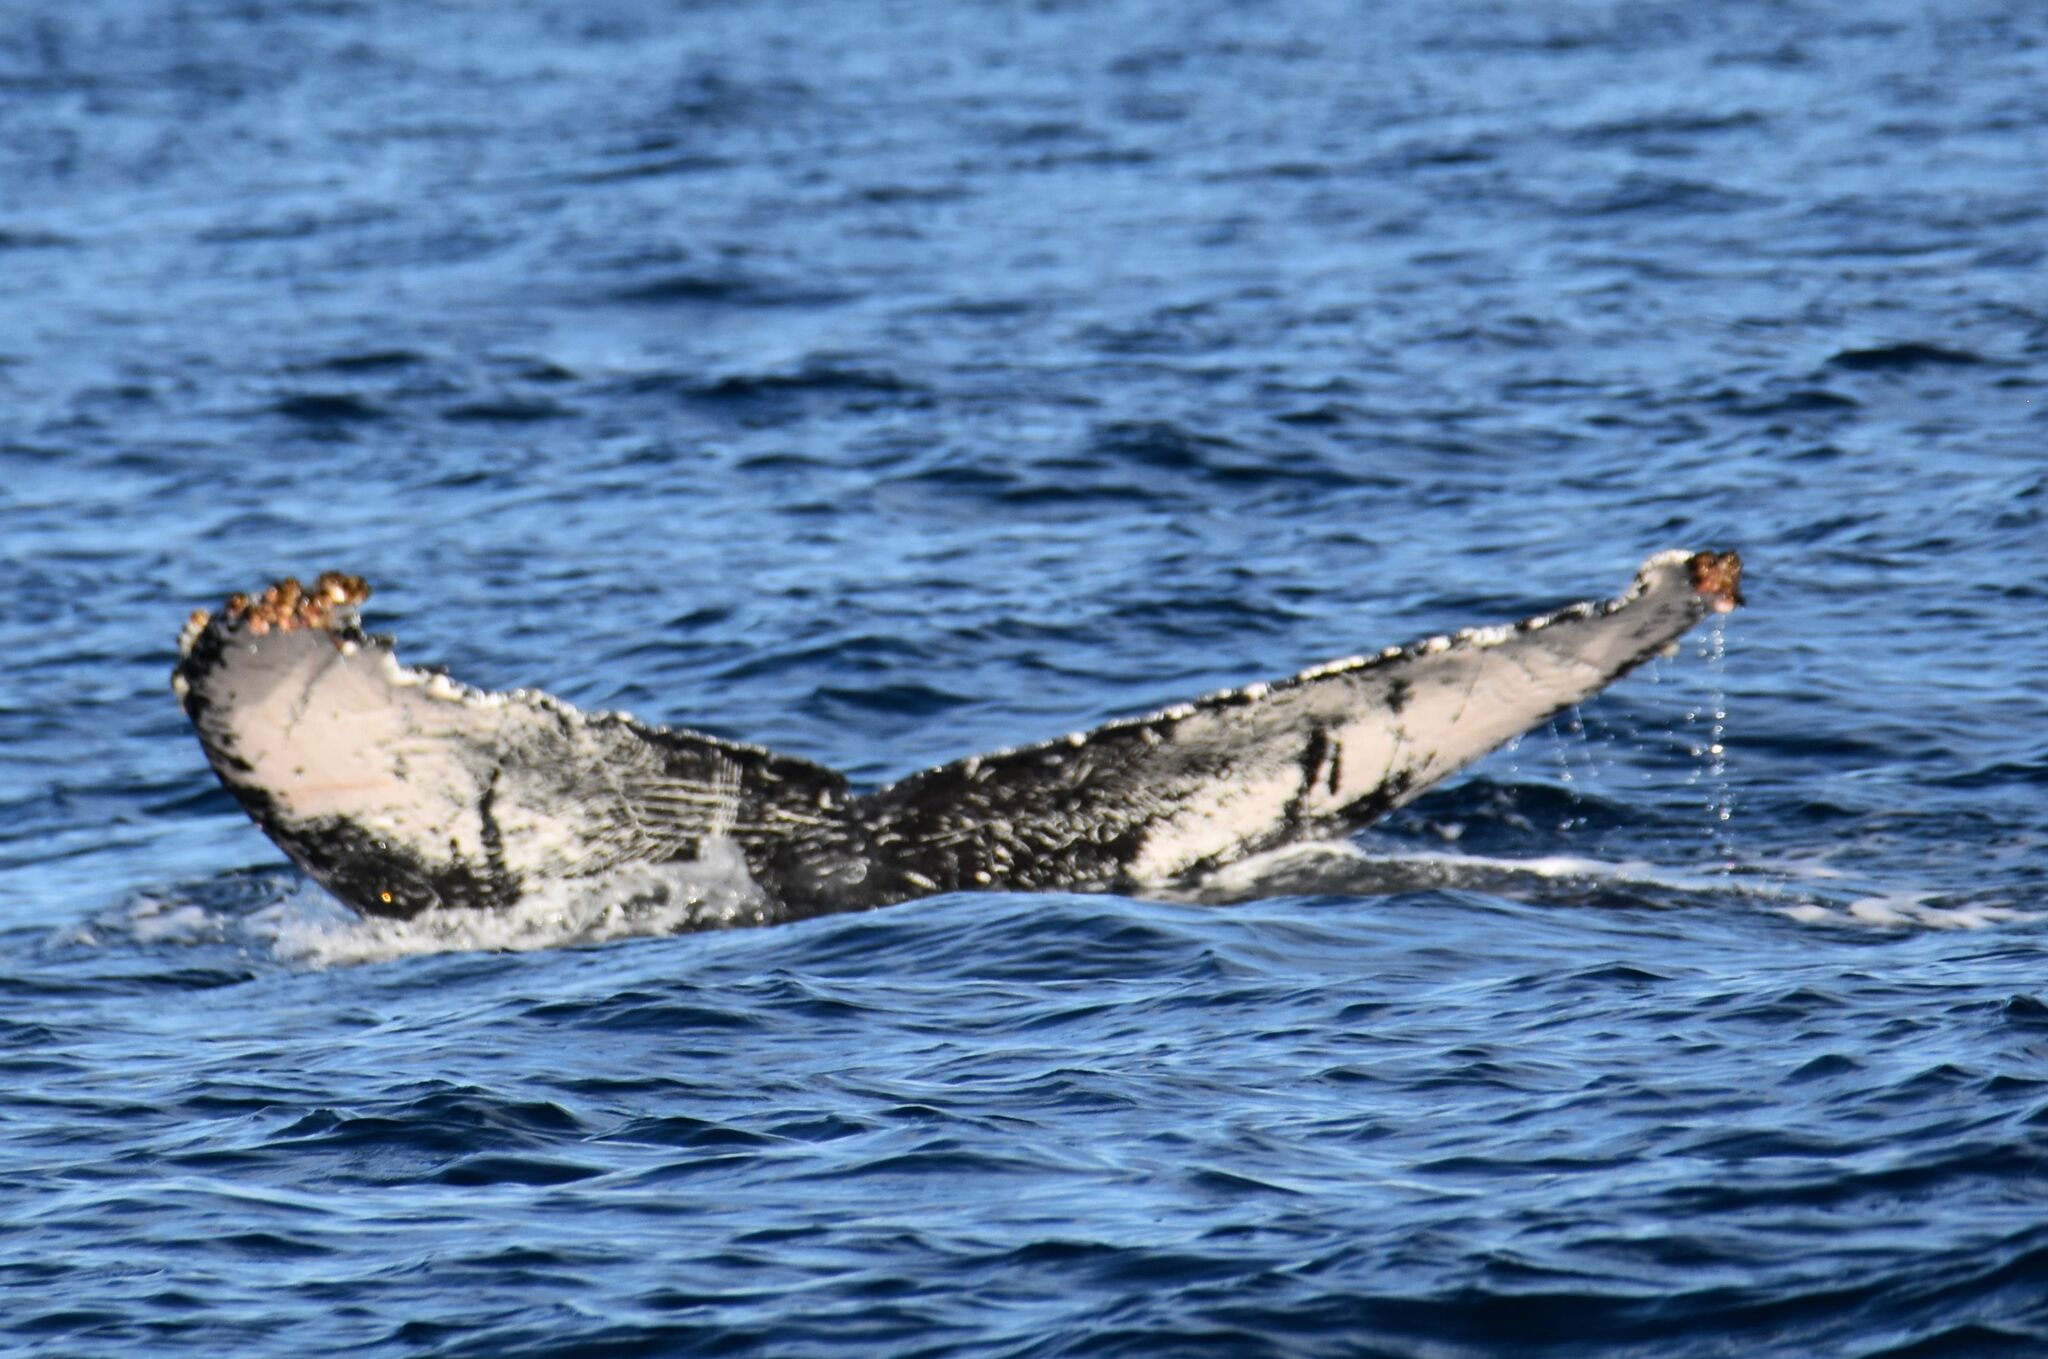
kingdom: Animalia
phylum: Chordata
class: Mammalia
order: Cetacea
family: Balaenopteridae
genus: Megaptera
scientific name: Megaptera novaeangliae
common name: Humpback whale
